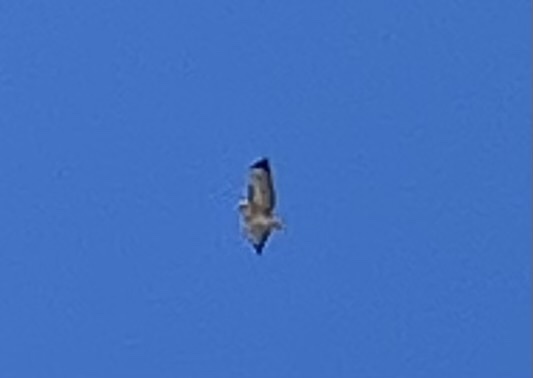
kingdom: Animalia
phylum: Chordata
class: Aves
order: Accipitriformes
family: Accipitridae
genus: Buteo
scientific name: Buteo jamaicensis
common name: Red-tailed hawk
